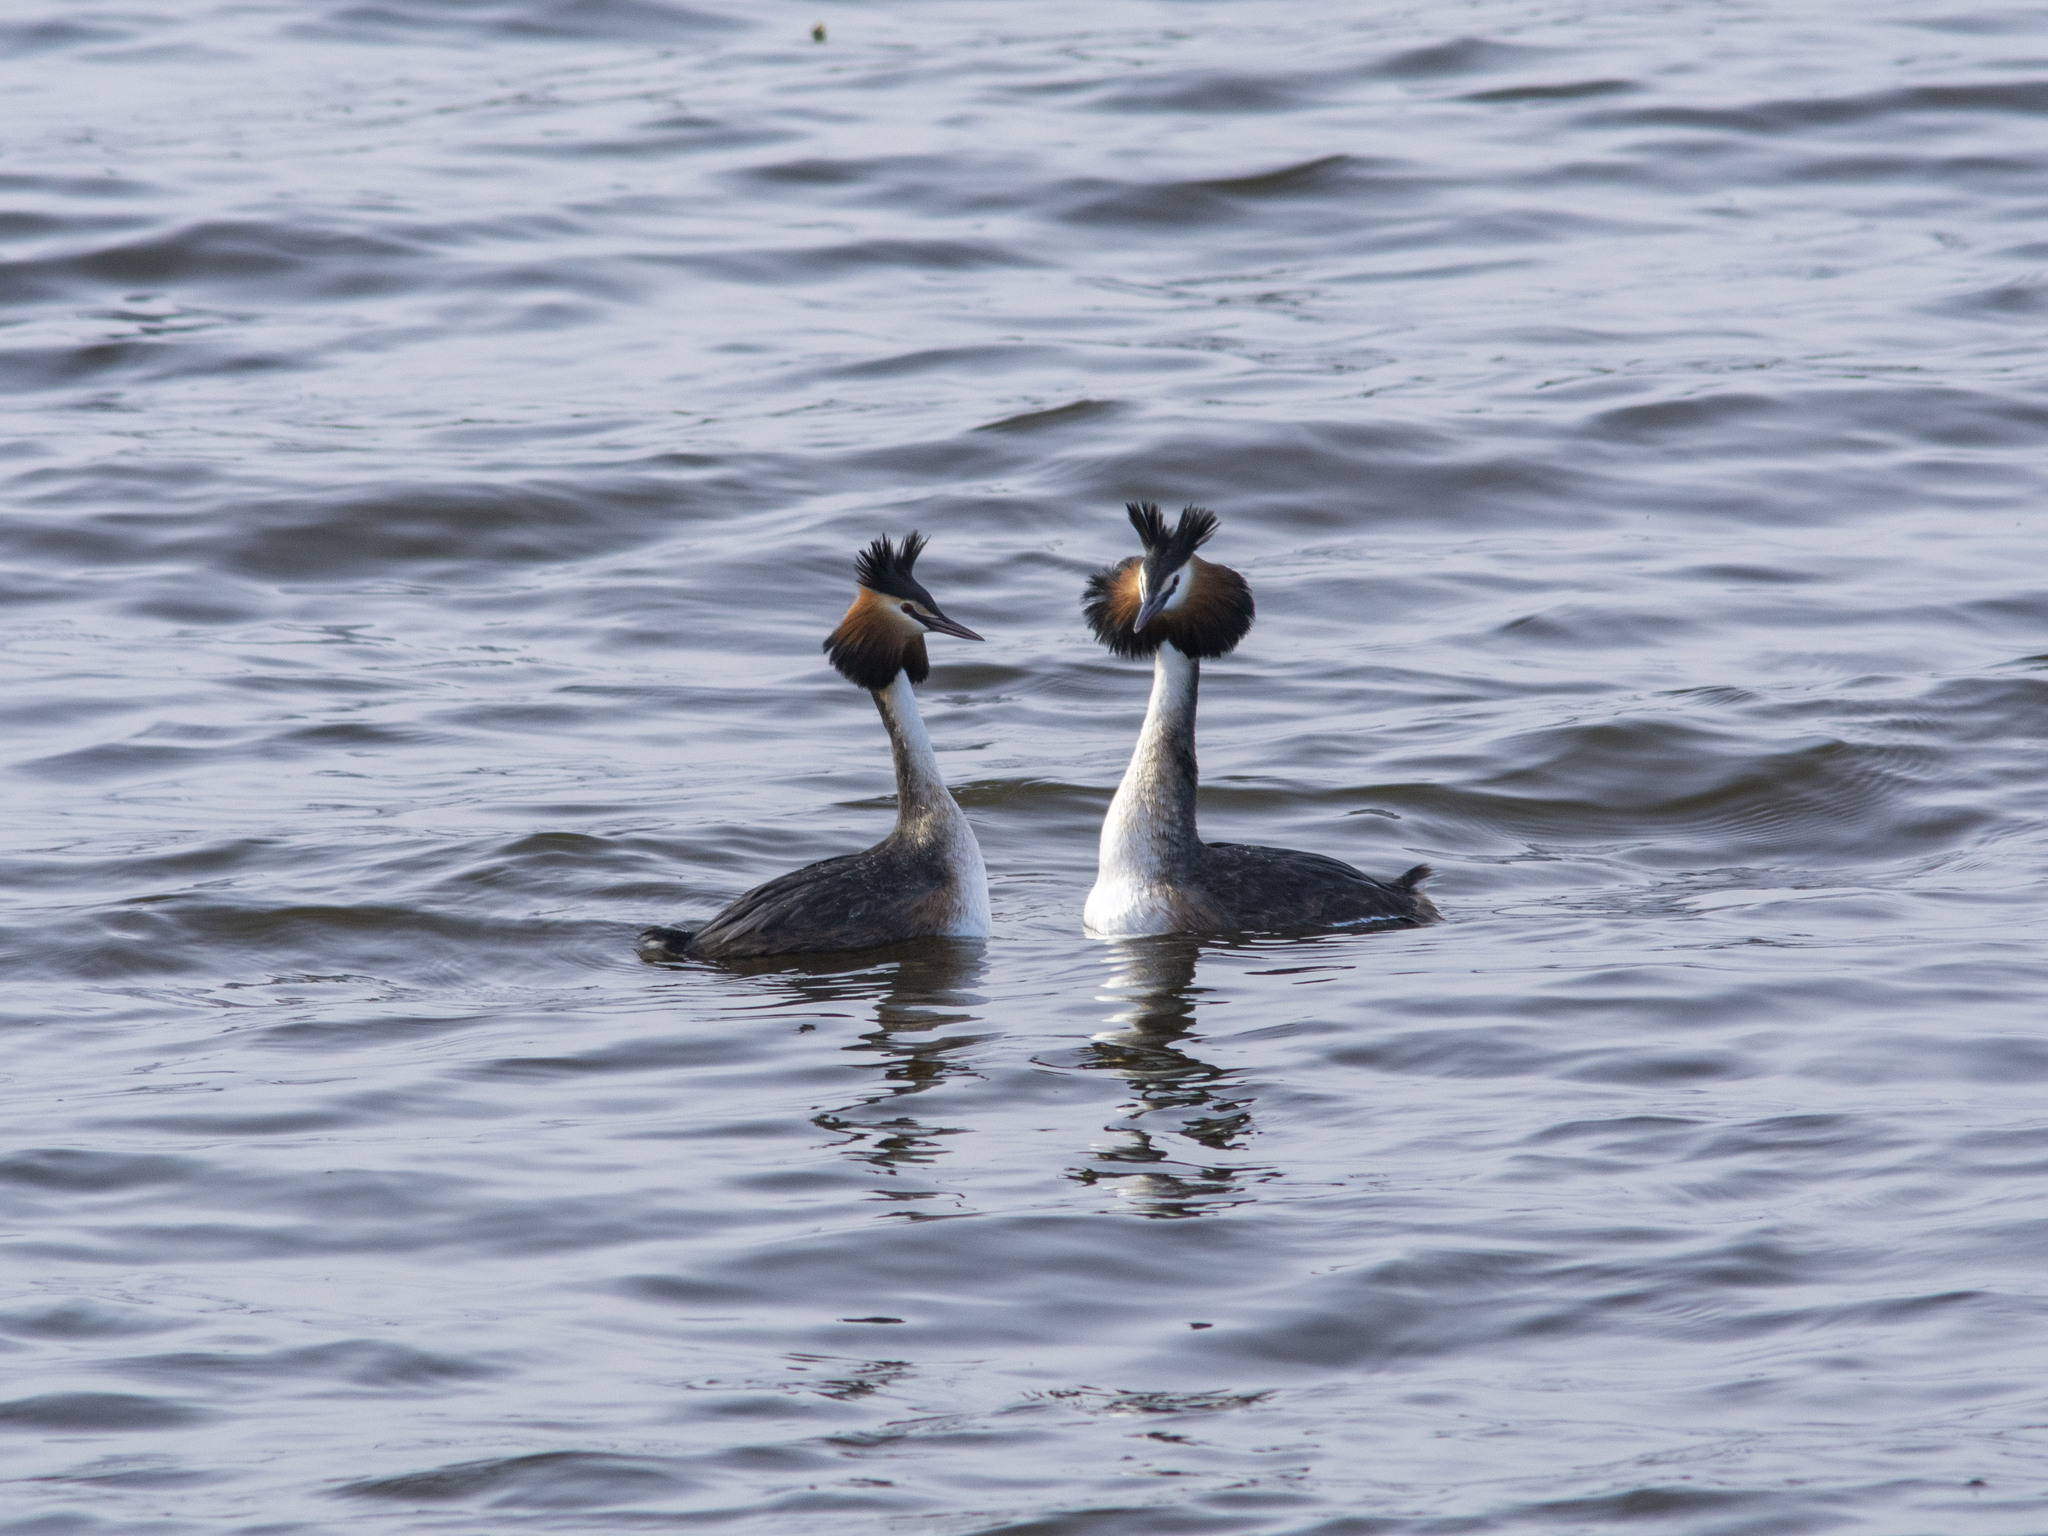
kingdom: Animalia
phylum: Chordata
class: Aves
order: Podicipediformes
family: Podicipedidae
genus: Podiceps
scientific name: Podiceps cristatus
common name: Great crested grebe
